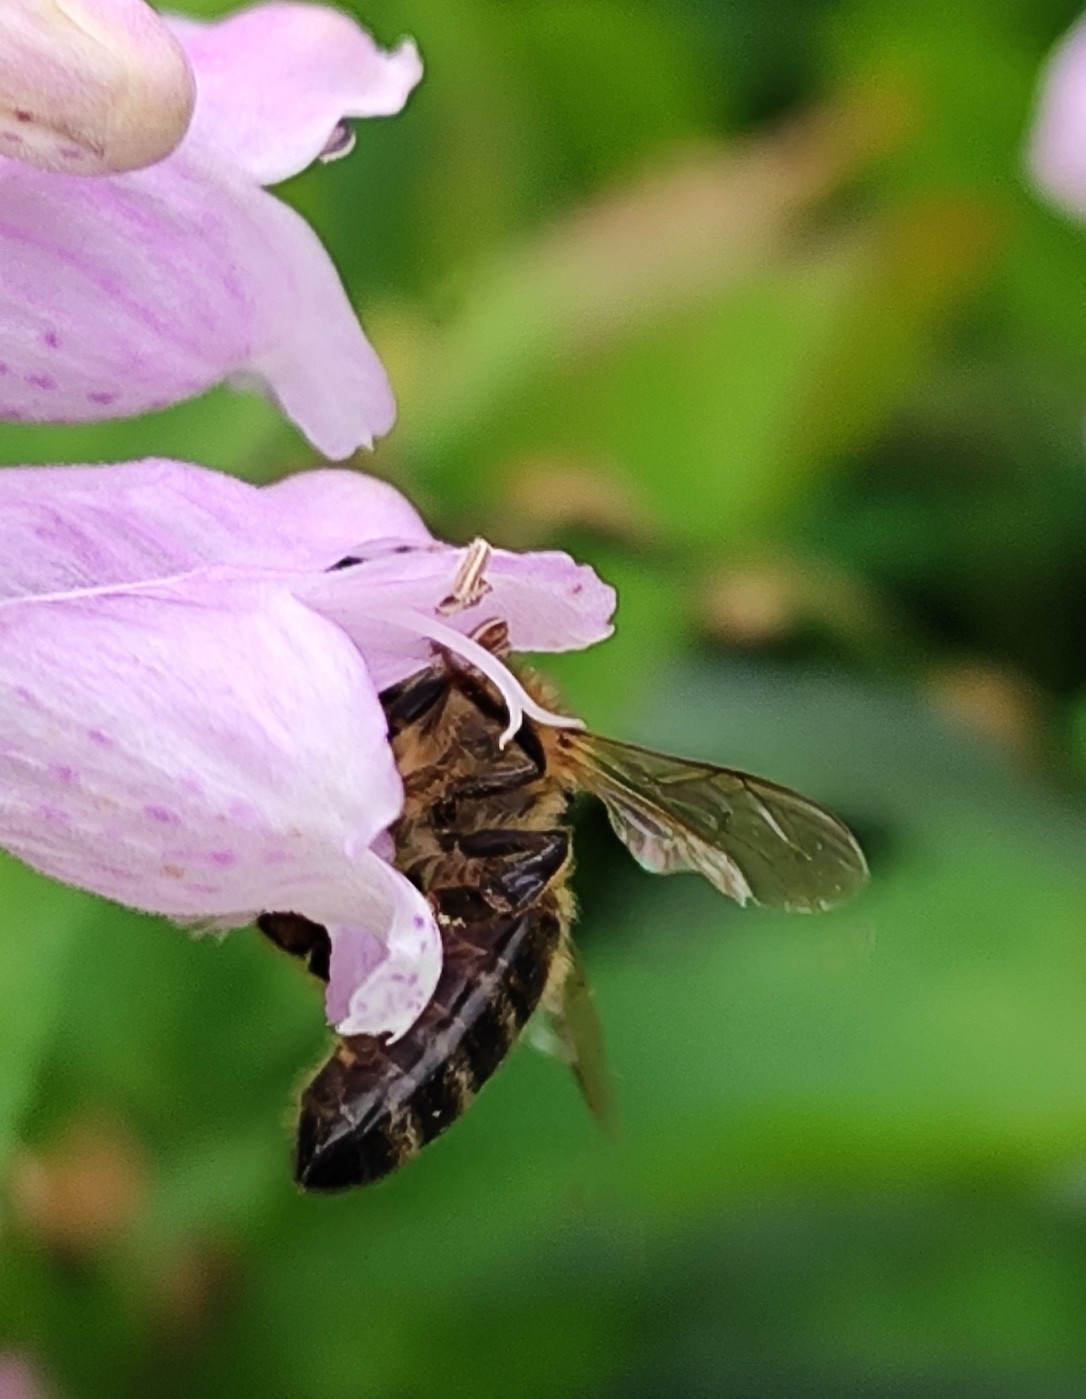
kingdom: Animalia
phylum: Arthropoda
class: Insecta
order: Hymenoptera
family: Apidae
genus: Apis
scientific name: Apis mellifera
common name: Honey bee
